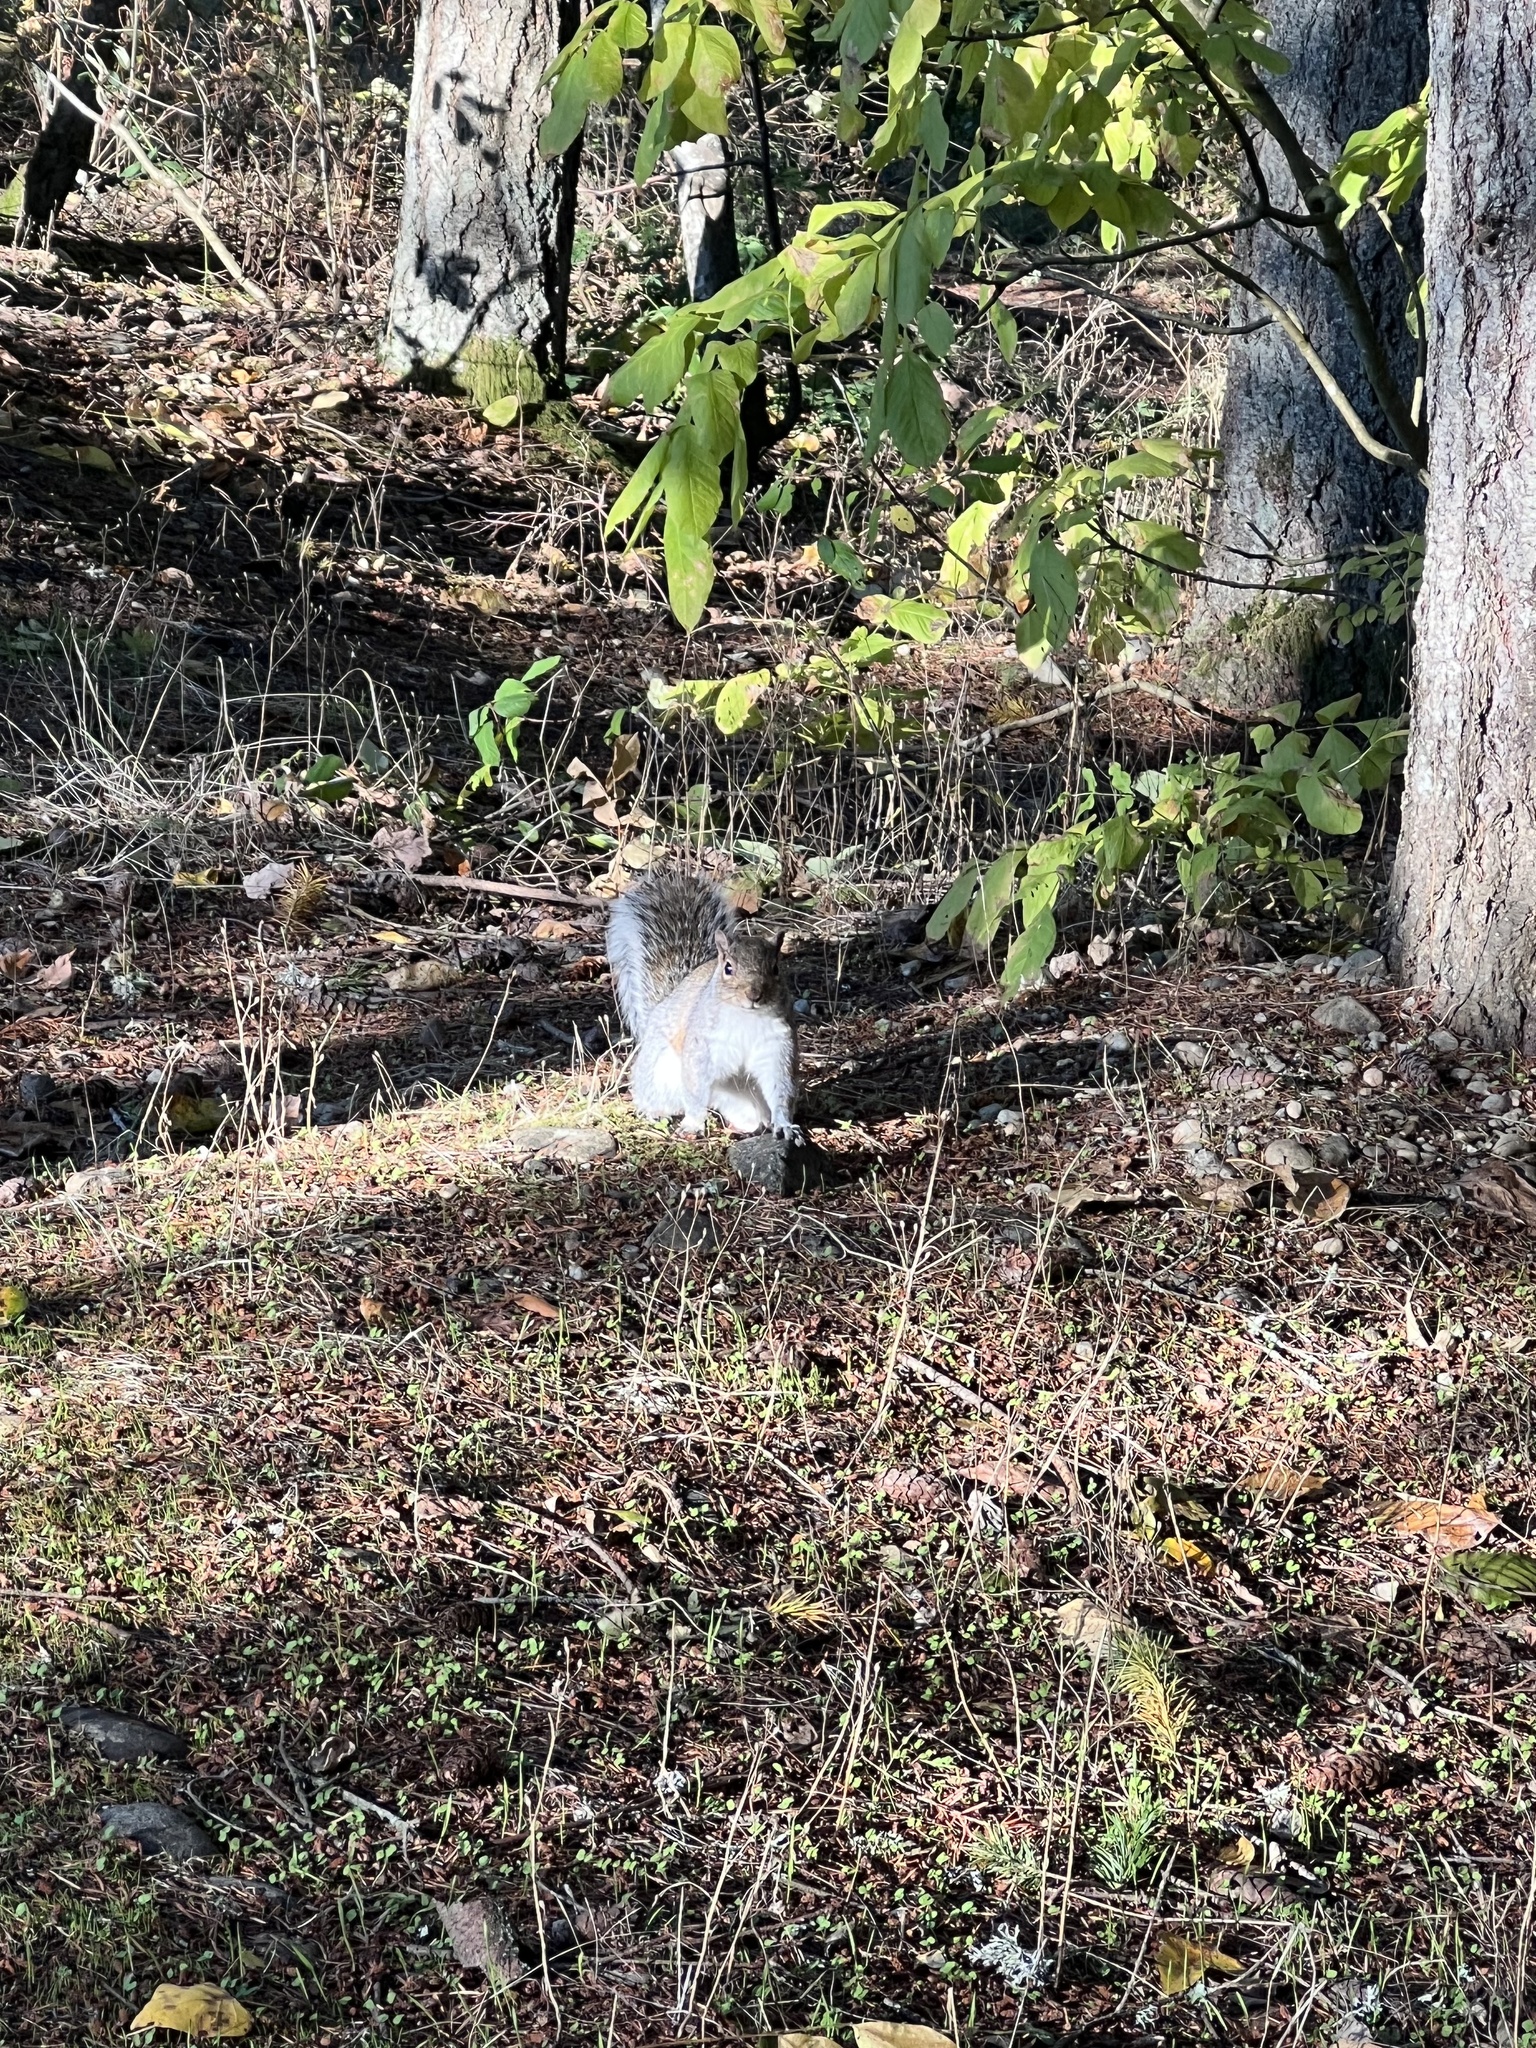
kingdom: Animalia
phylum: Chordata
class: Mammalia
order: Rodentia
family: Sciuridae
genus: Sciurus
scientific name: Sciurus carolinensis
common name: Eastern gray squirrel
